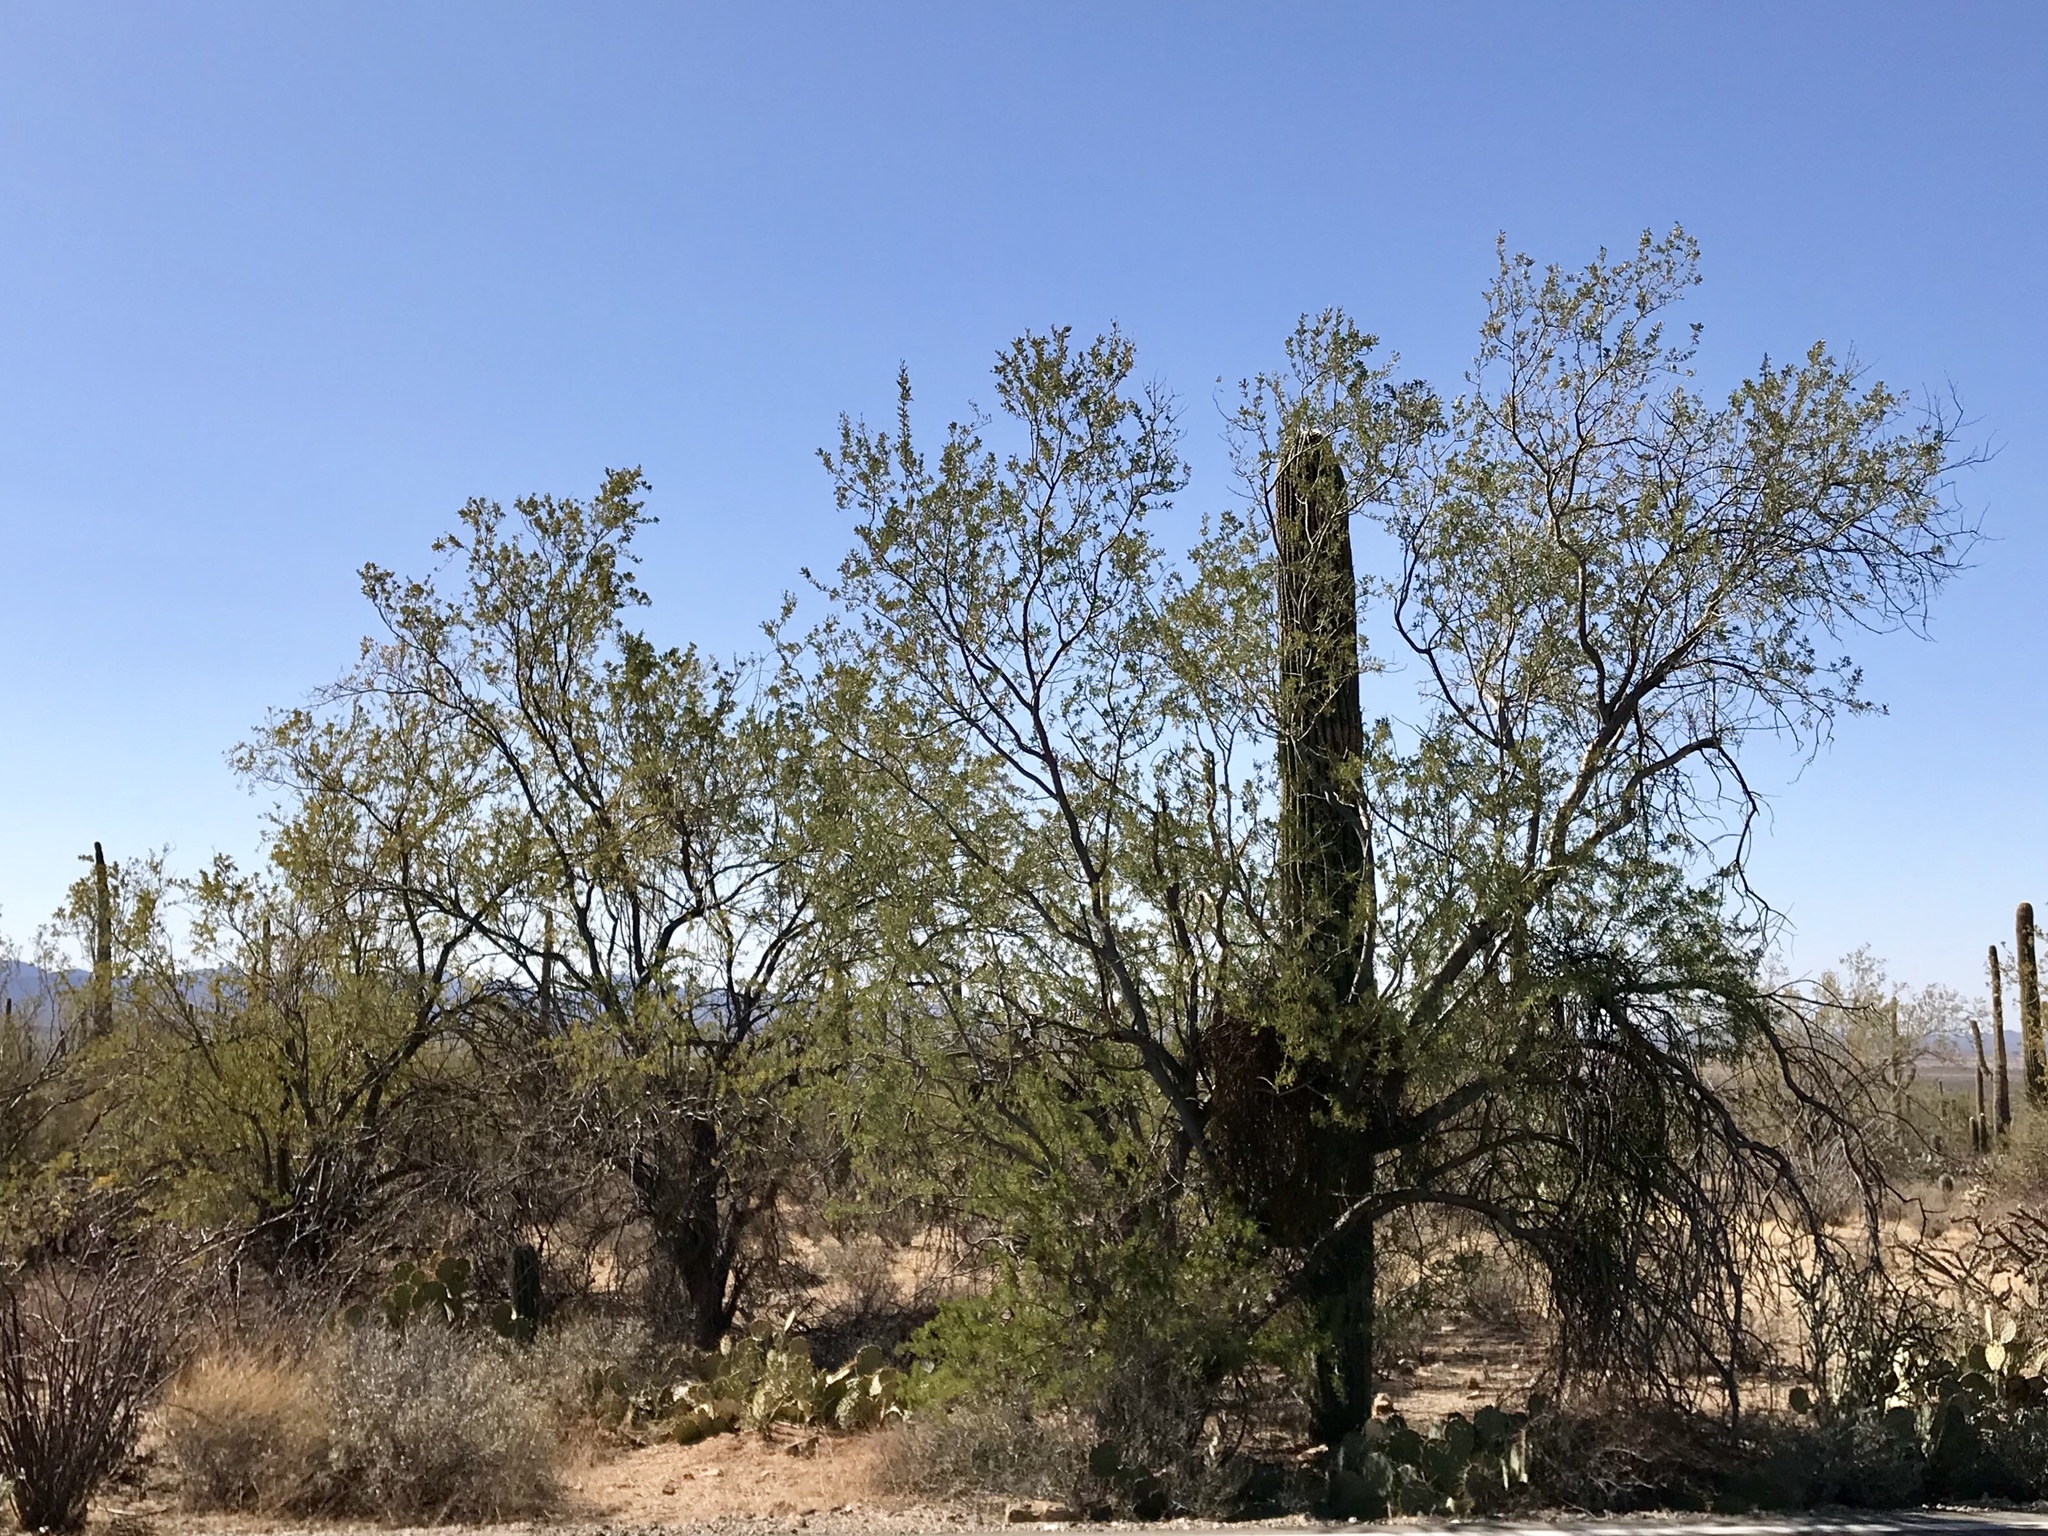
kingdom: Plantae
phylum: Tracheophyta
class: Magnoliopsida
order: Fabales
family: Fabaceae
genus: Olneya
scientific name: Olneya tesota
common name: Desert ironwood
